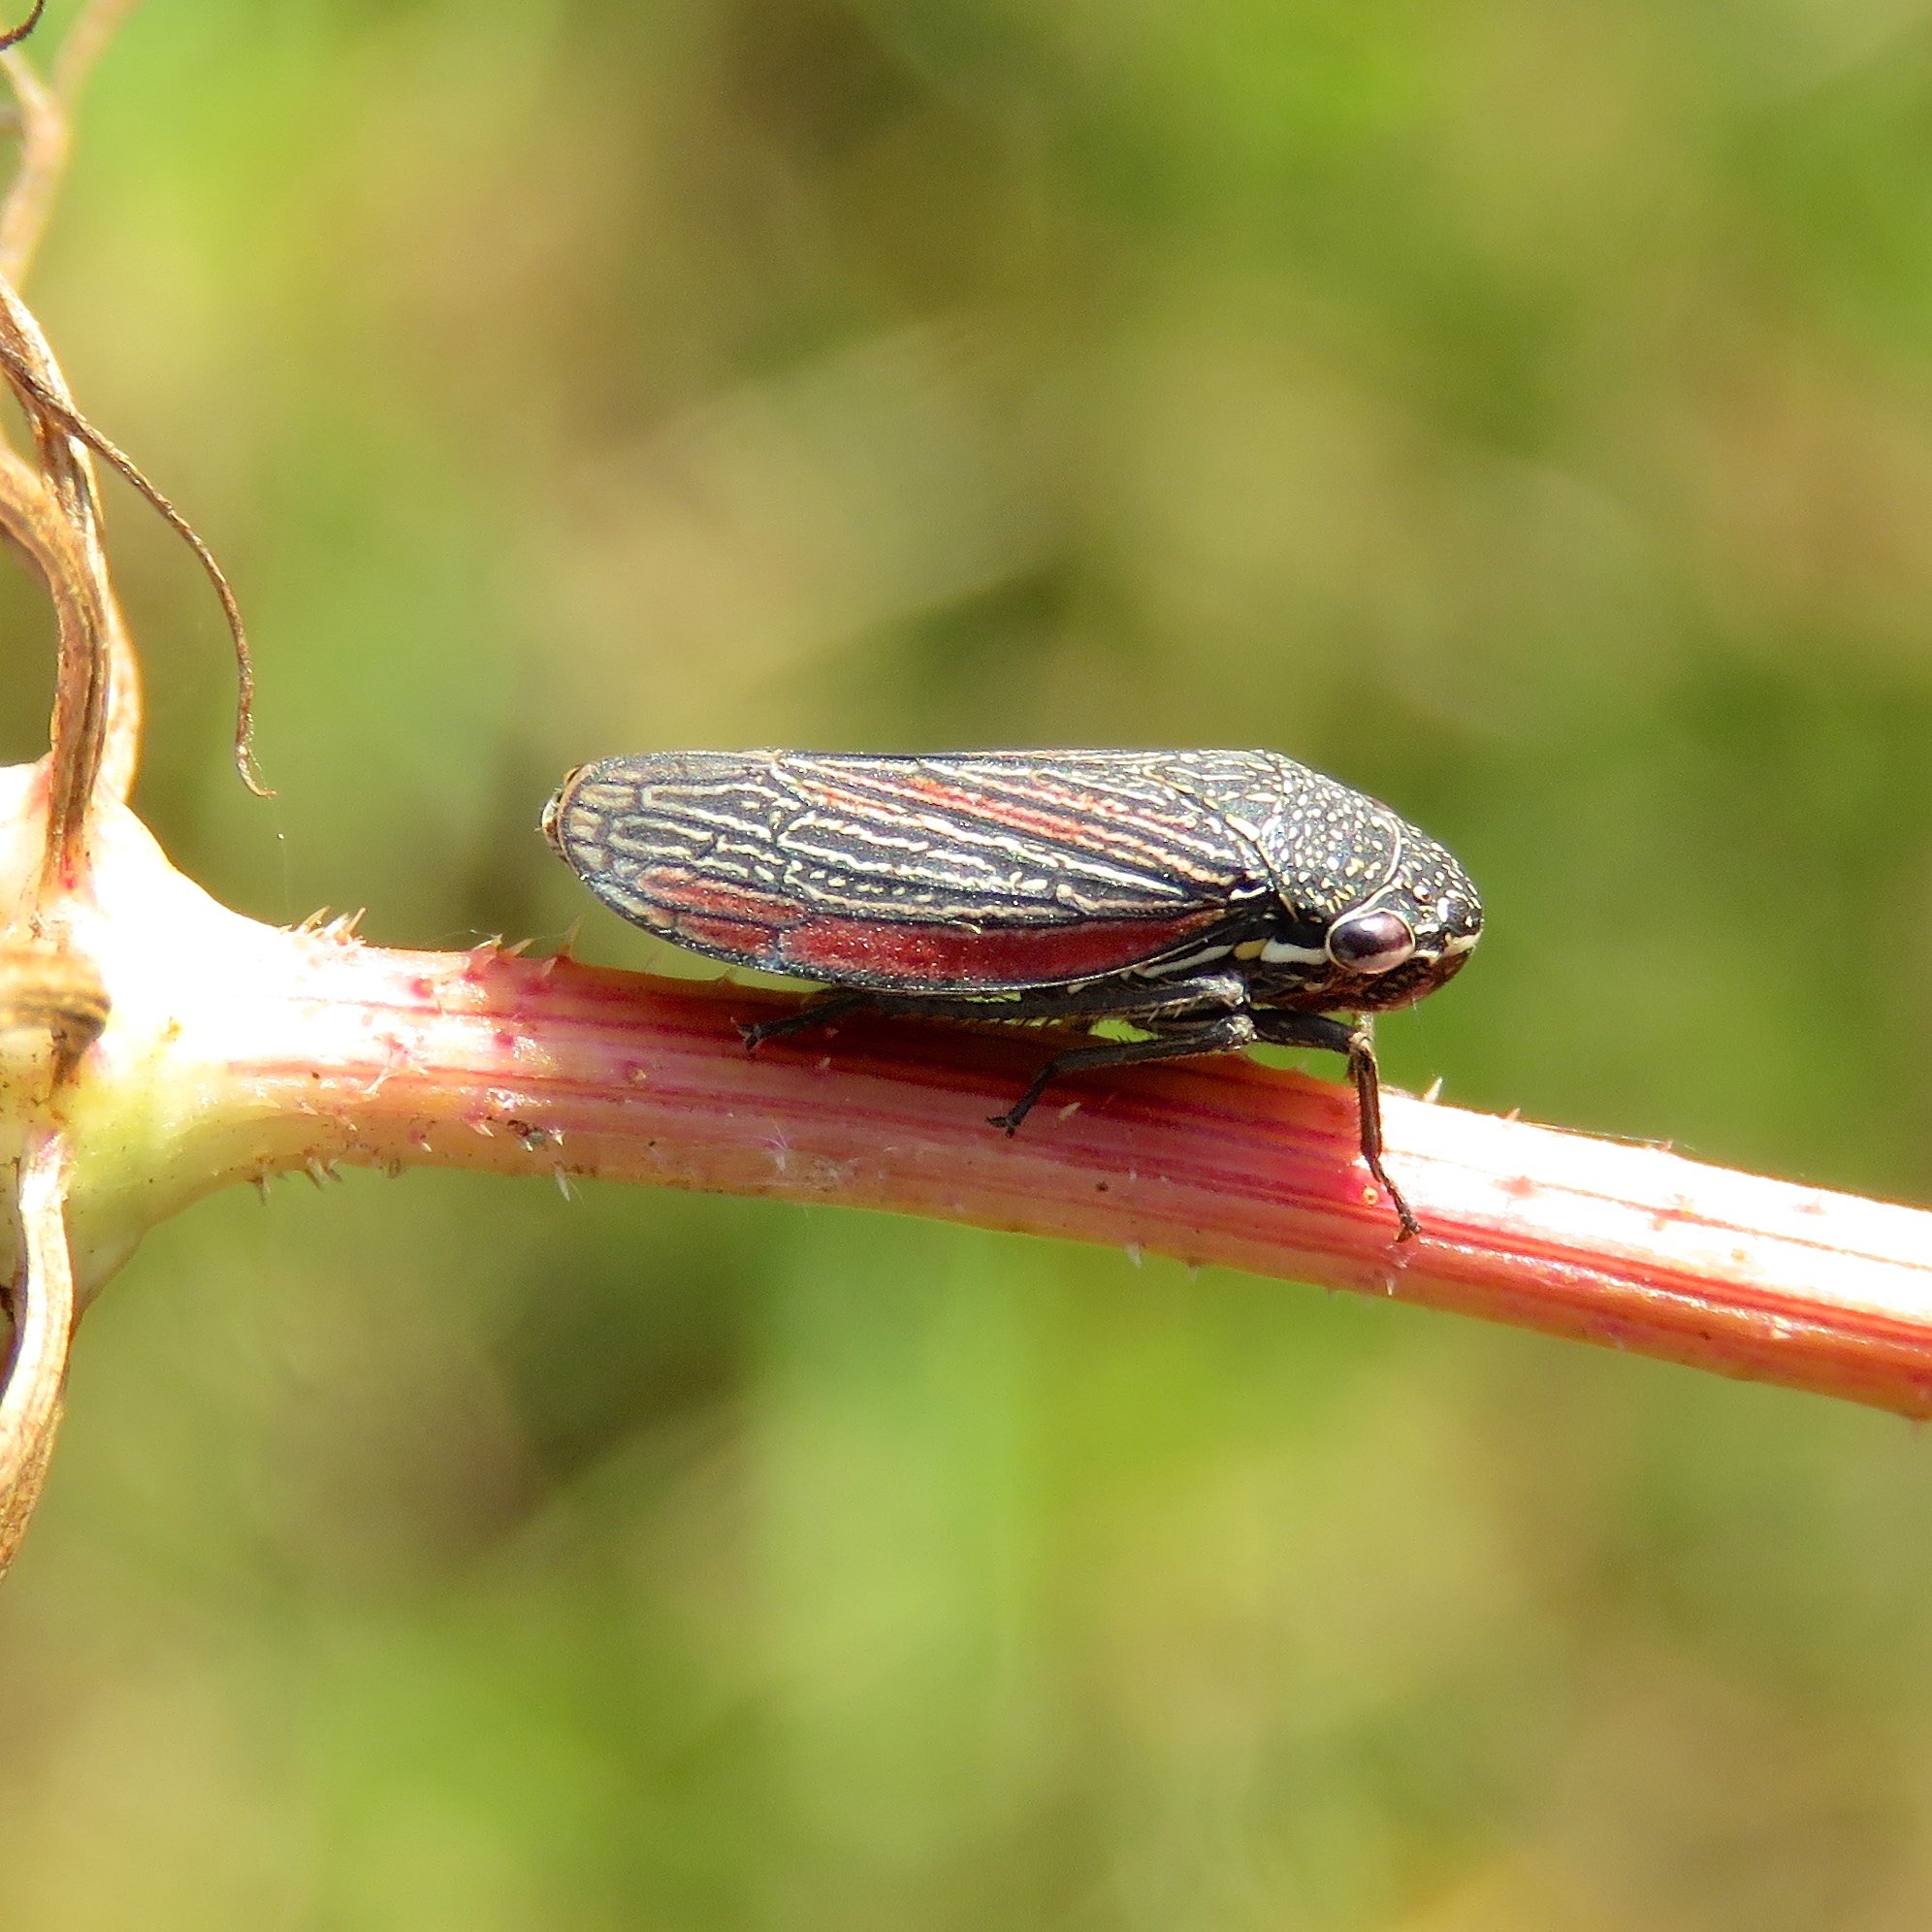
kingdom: Animalia
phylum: Arthropoda
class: Insecta
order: Hemiptera
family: Cicadellidae
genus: Cuerna
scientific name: Cuerna striata
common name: Striped leafhopper
